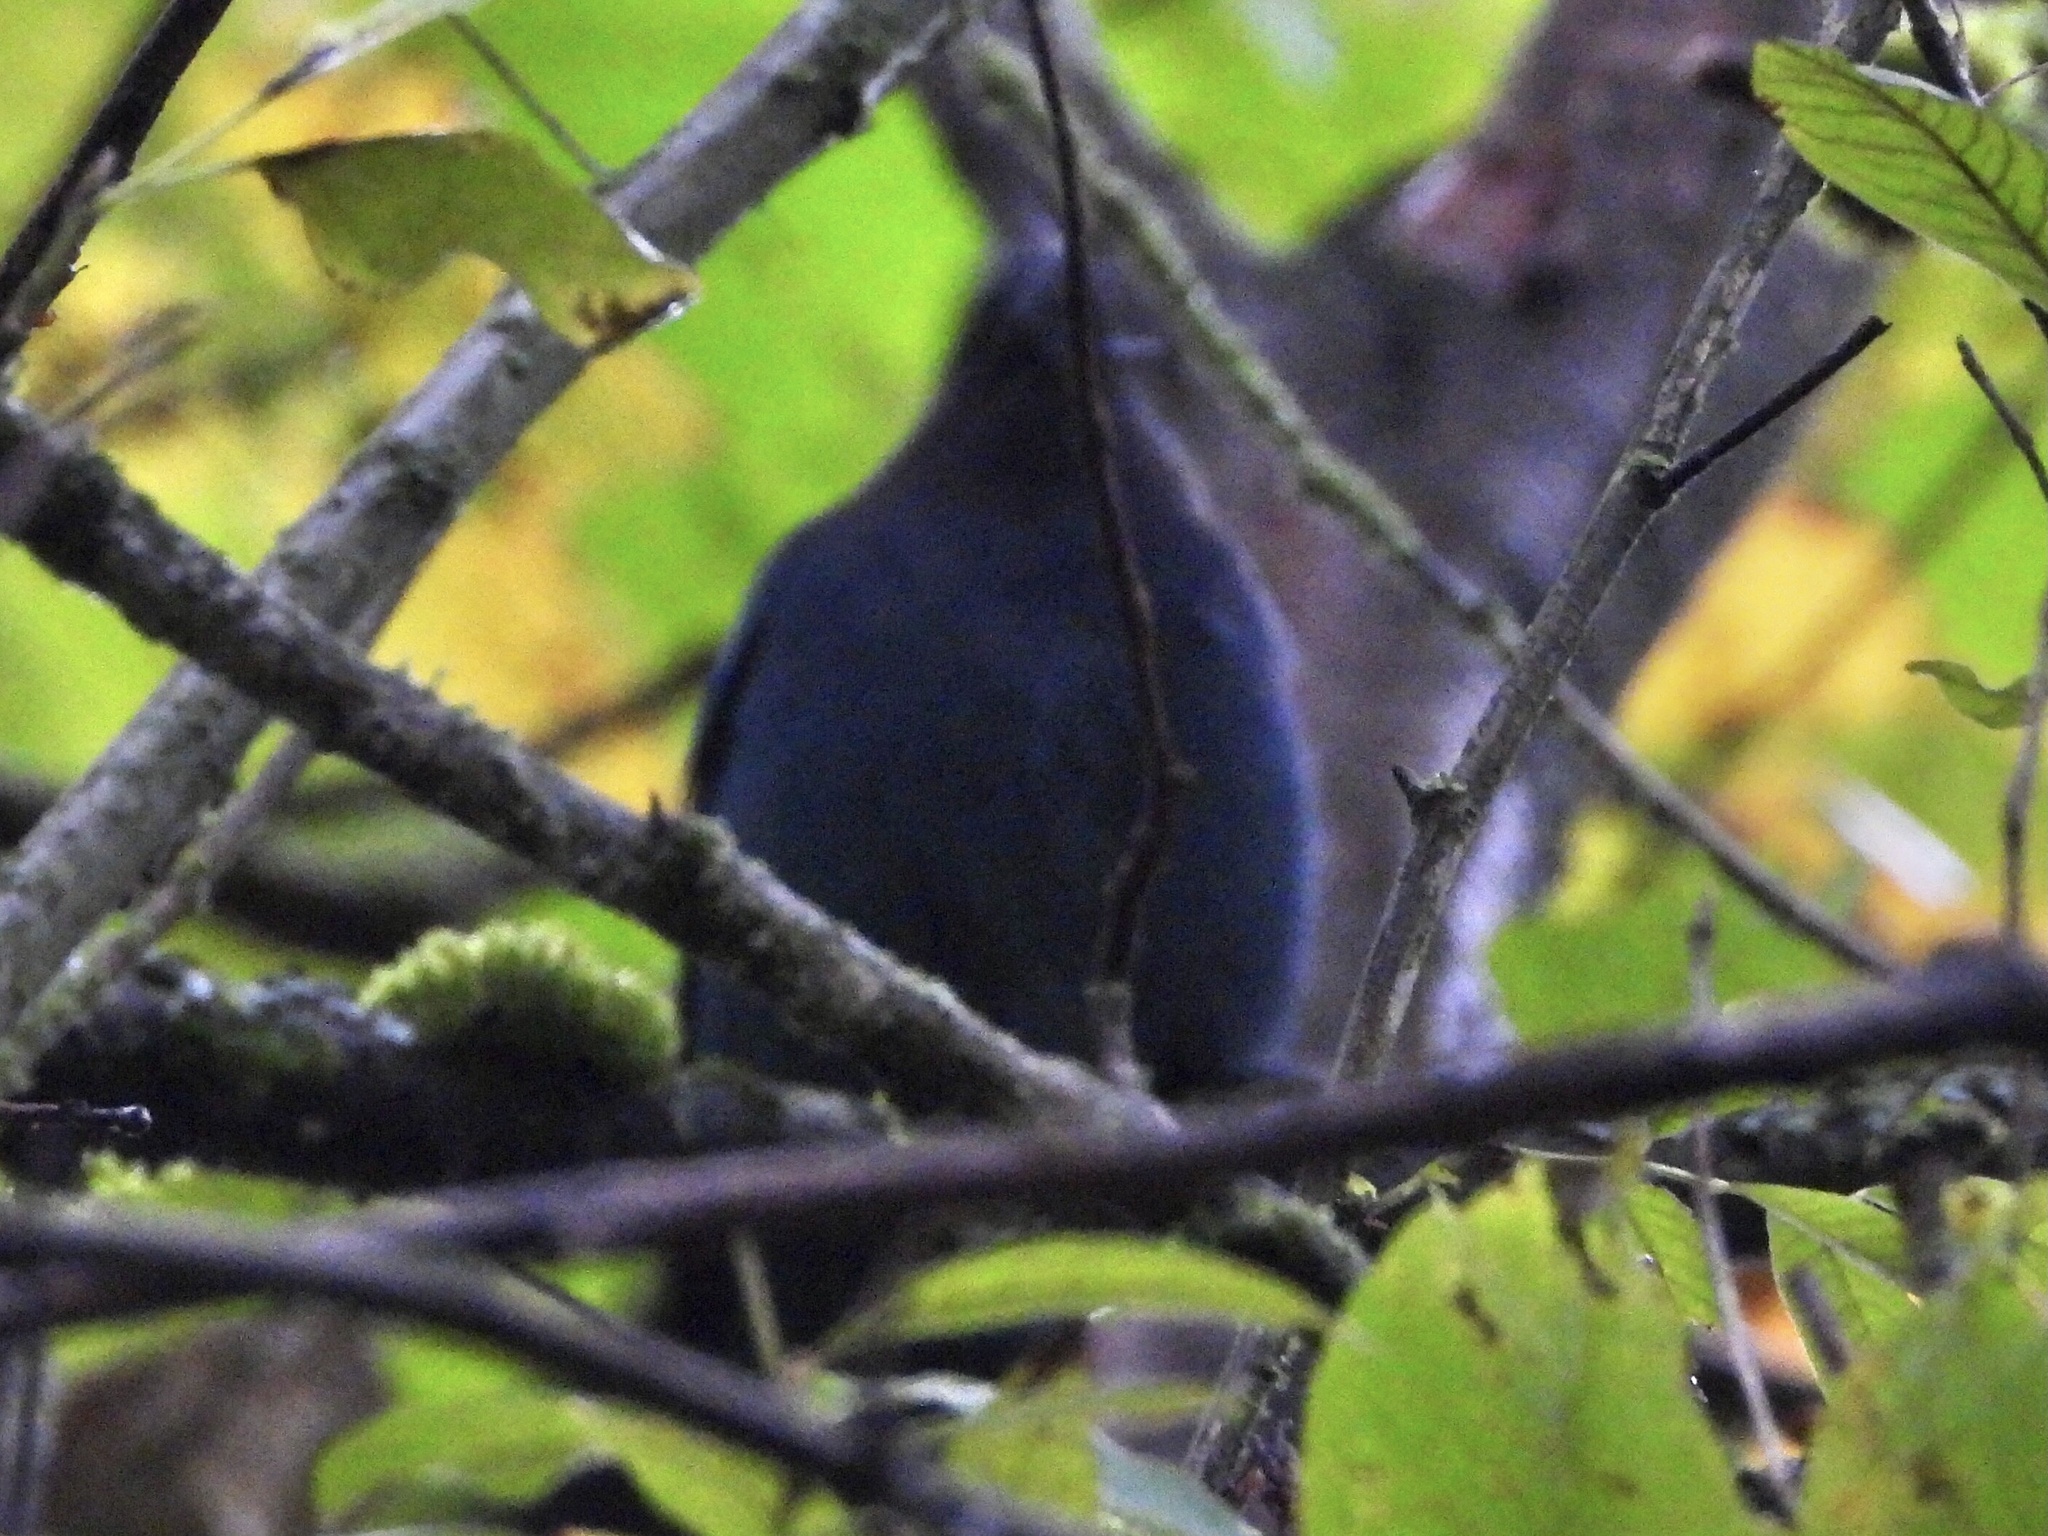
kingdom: Animalia
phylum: Chordata
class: Aves
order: Passeriformes
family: Corvidae
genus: Cyanocitta
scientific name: Cyanocitta stelleri
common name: Steller's jay
